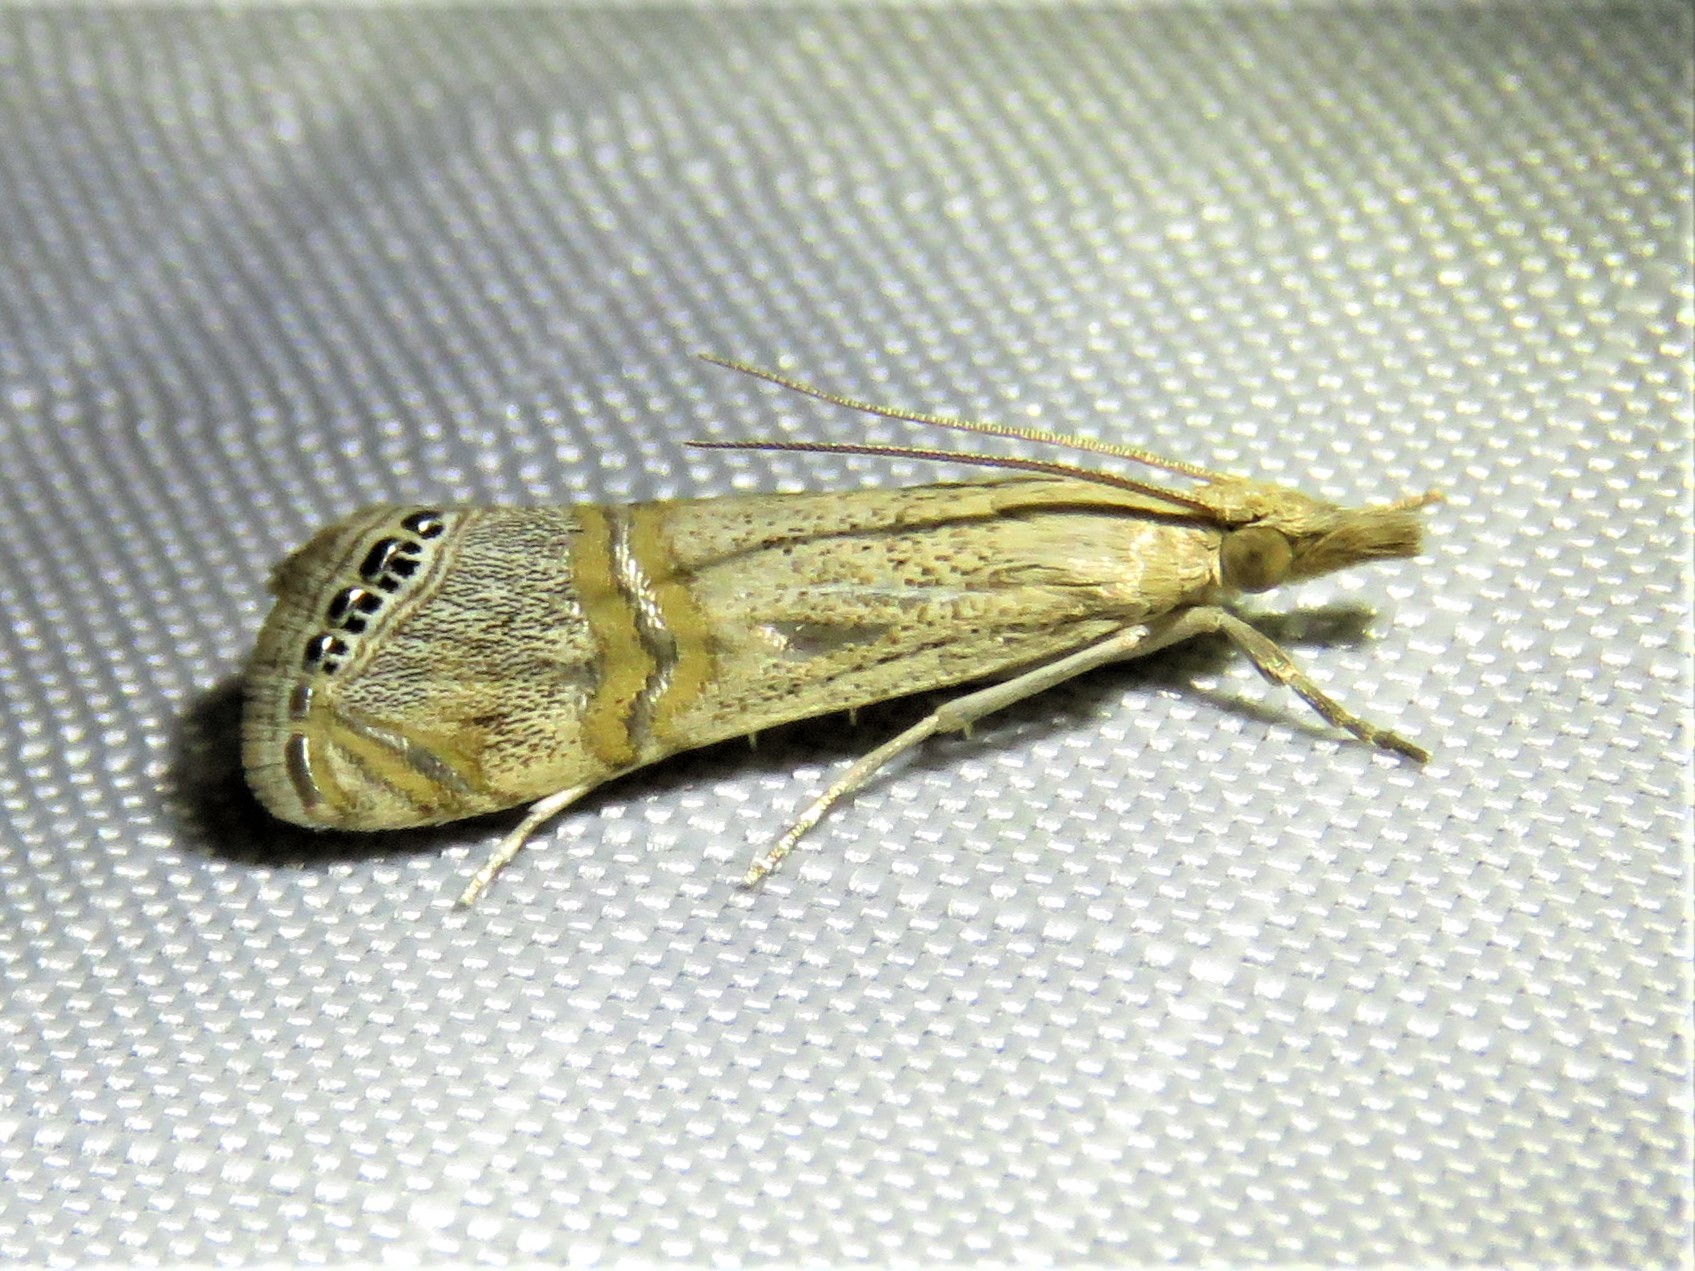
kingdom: Animalia
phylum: Arthropoda
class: Insecta
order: Lepidoptera
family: Crambidae
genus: Euchromius
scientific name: Euchromius ocellea
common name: Necklace veneer moth
